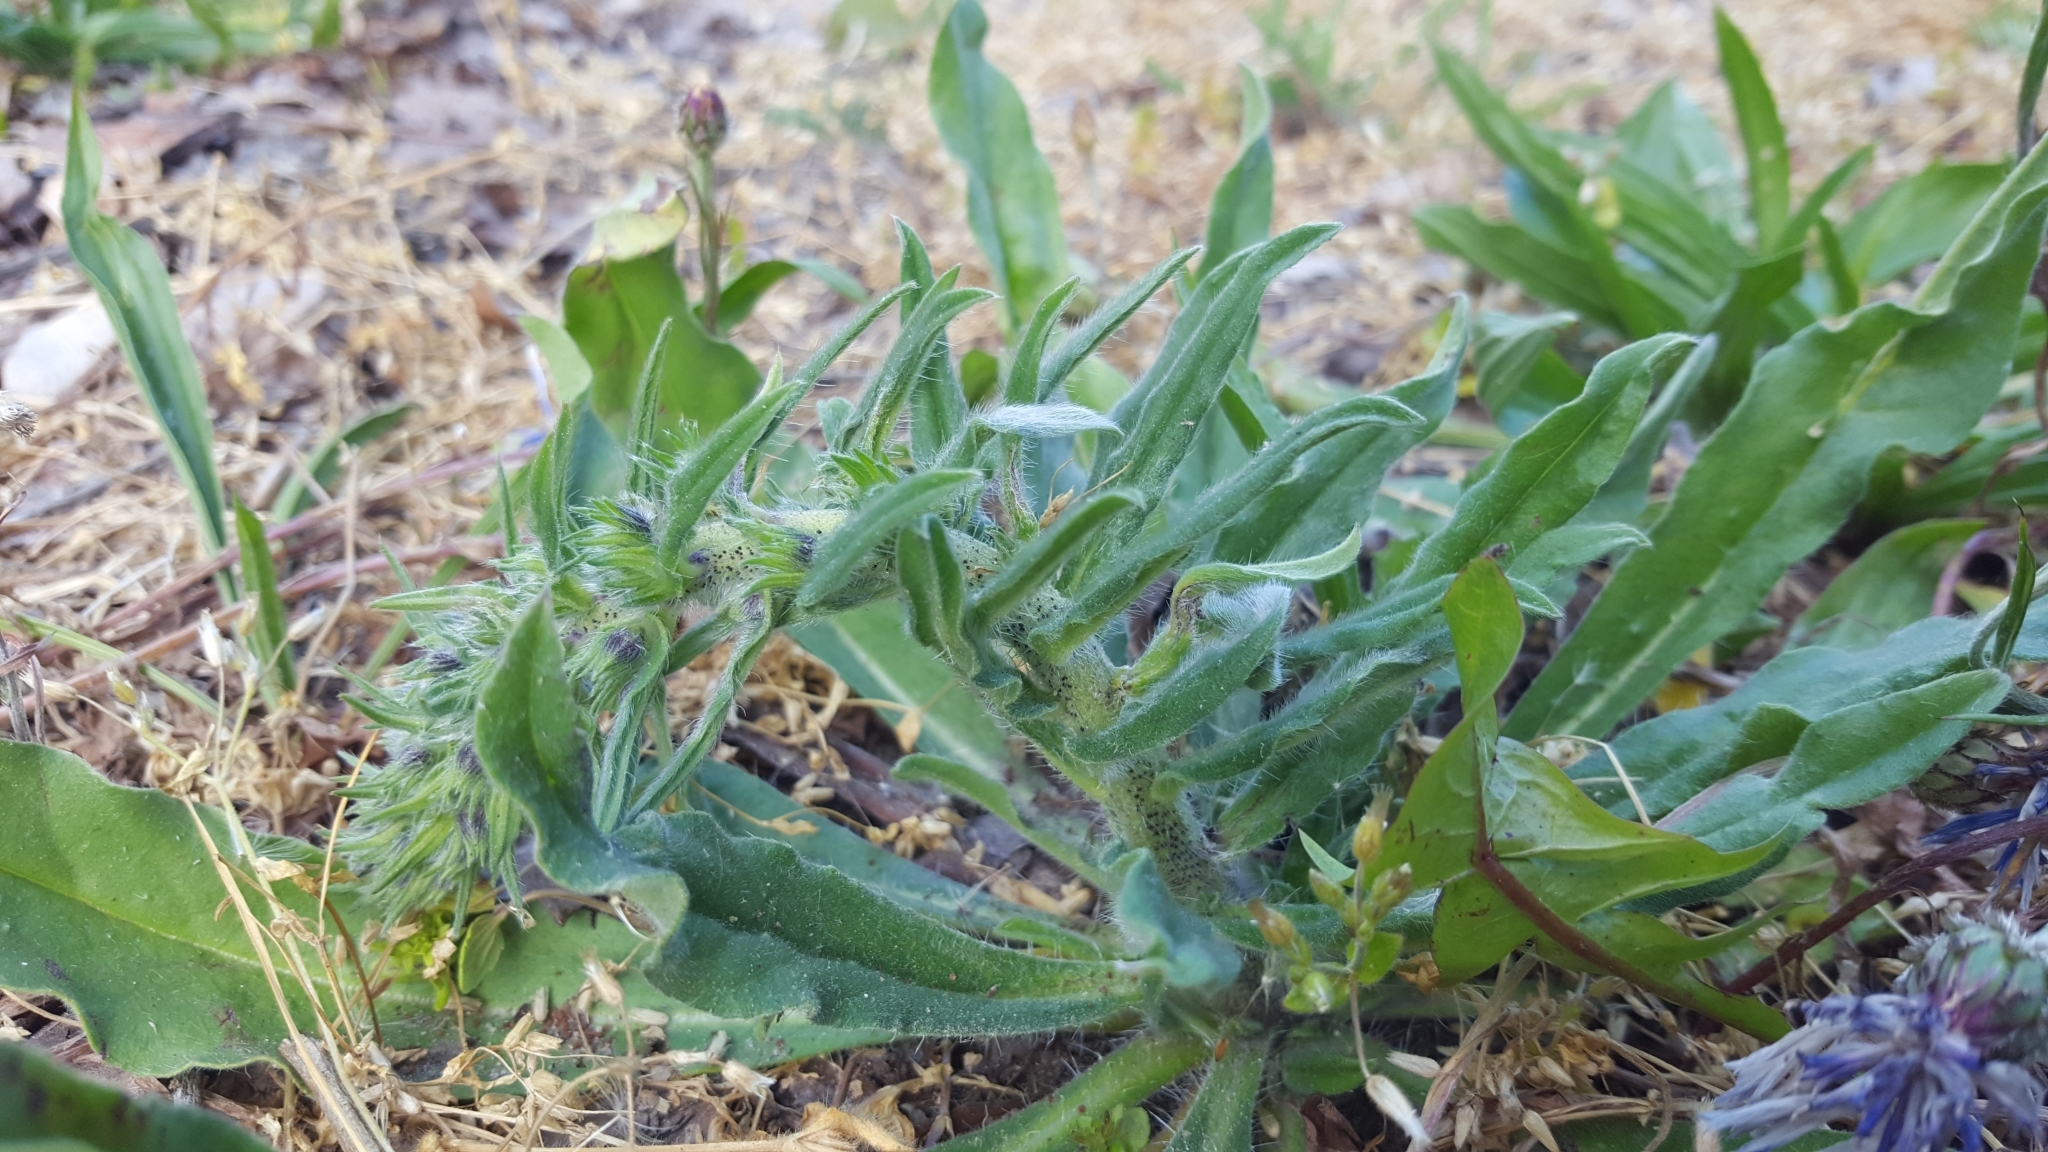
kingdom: Plantae
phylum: Tracheophyta
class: Magnoliopsida
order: Boraginales
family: Boraginaceae
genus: Echium
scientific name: Echium vulgare
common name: Common viper's bugloss
